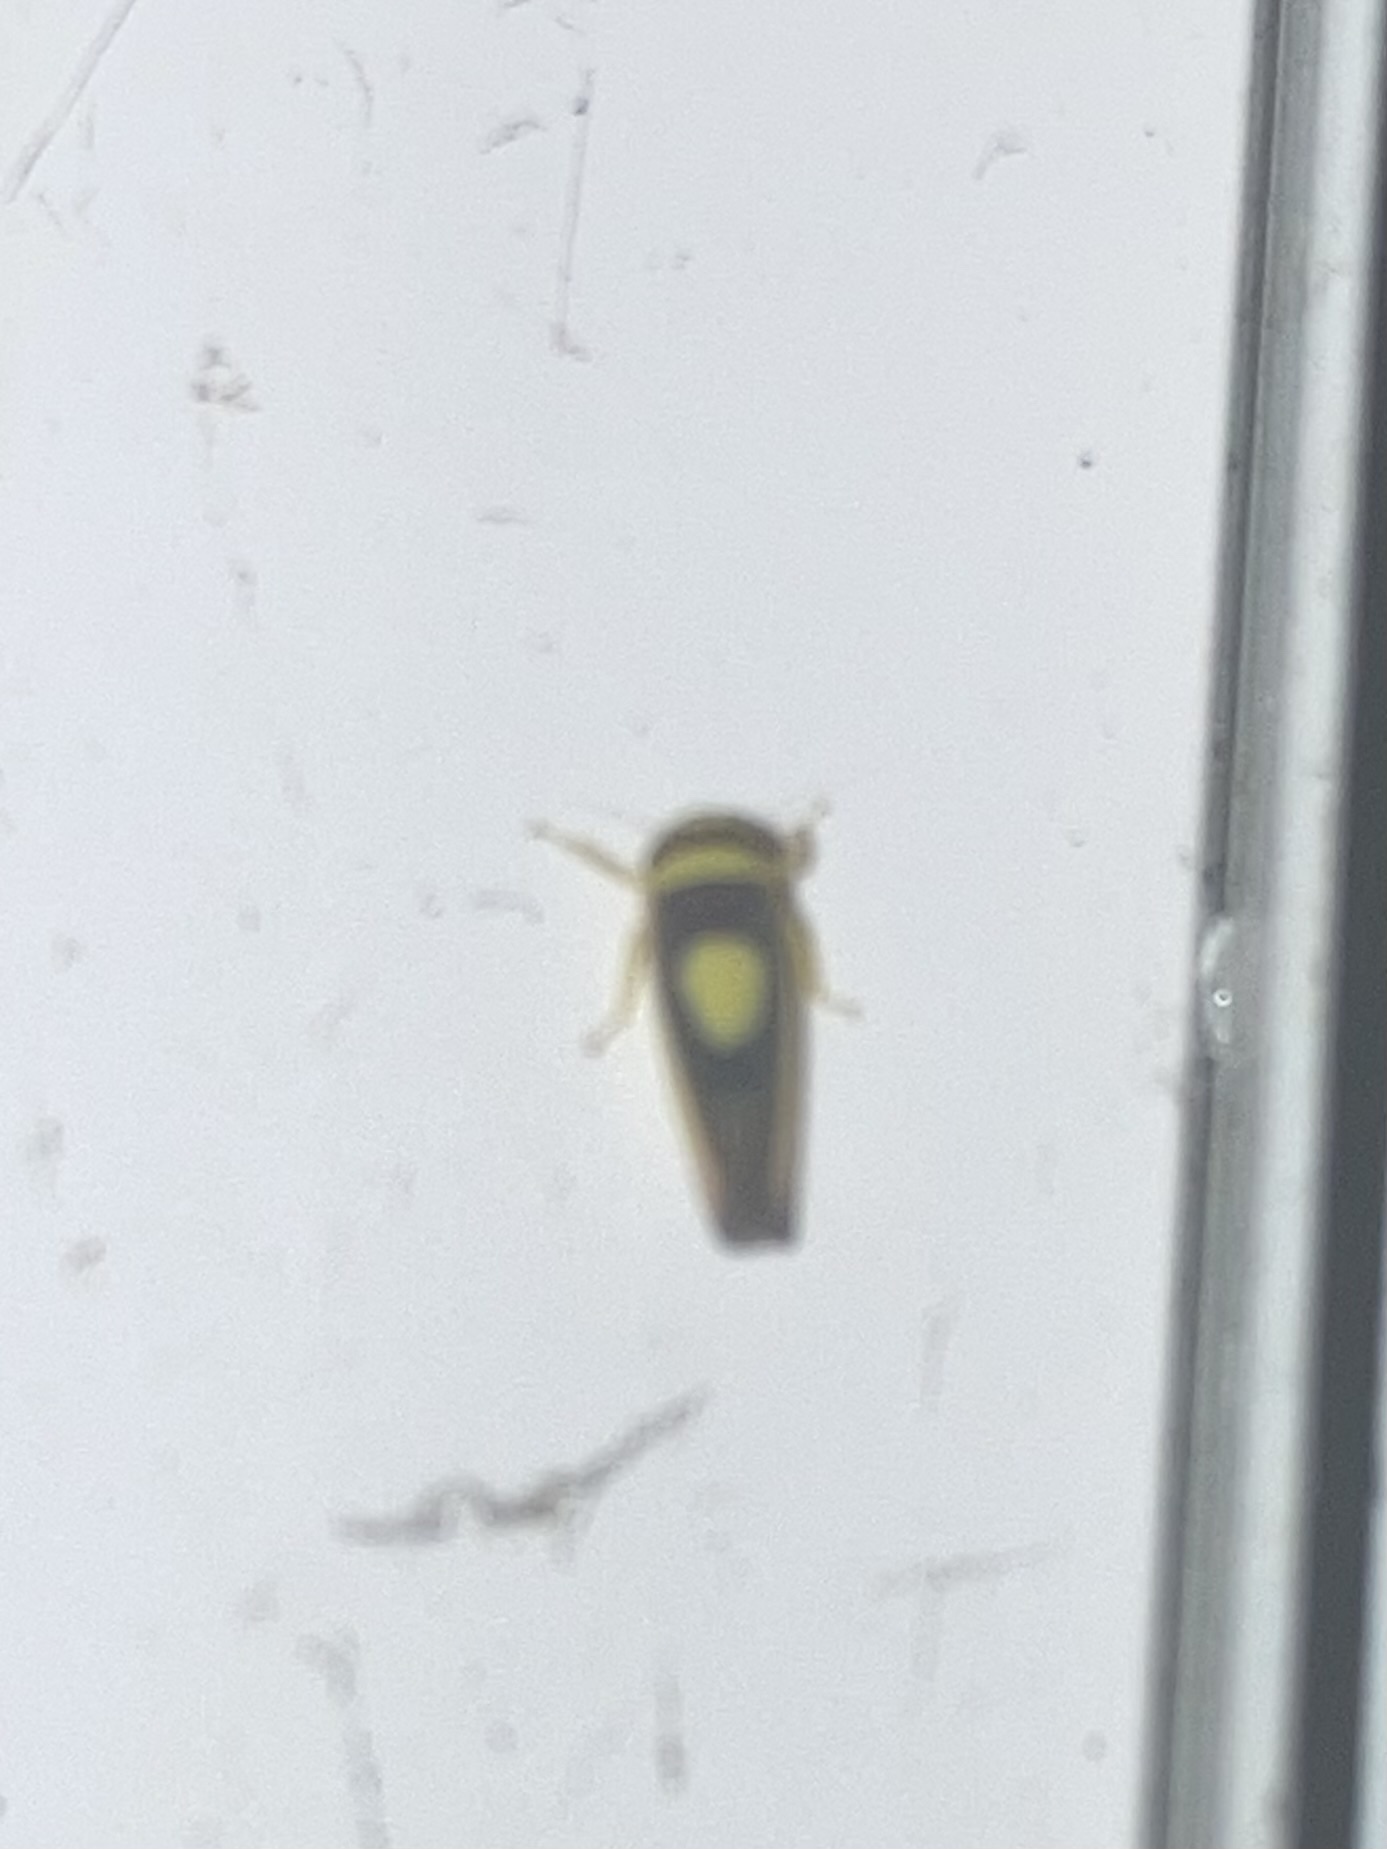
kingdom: Animalia
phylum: Arthropoda
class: Insecta
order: Hemiptera
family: Cicadellidae
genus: Colladonus
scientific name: Colladonus clitellarius
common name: The saddleback leafhopper
